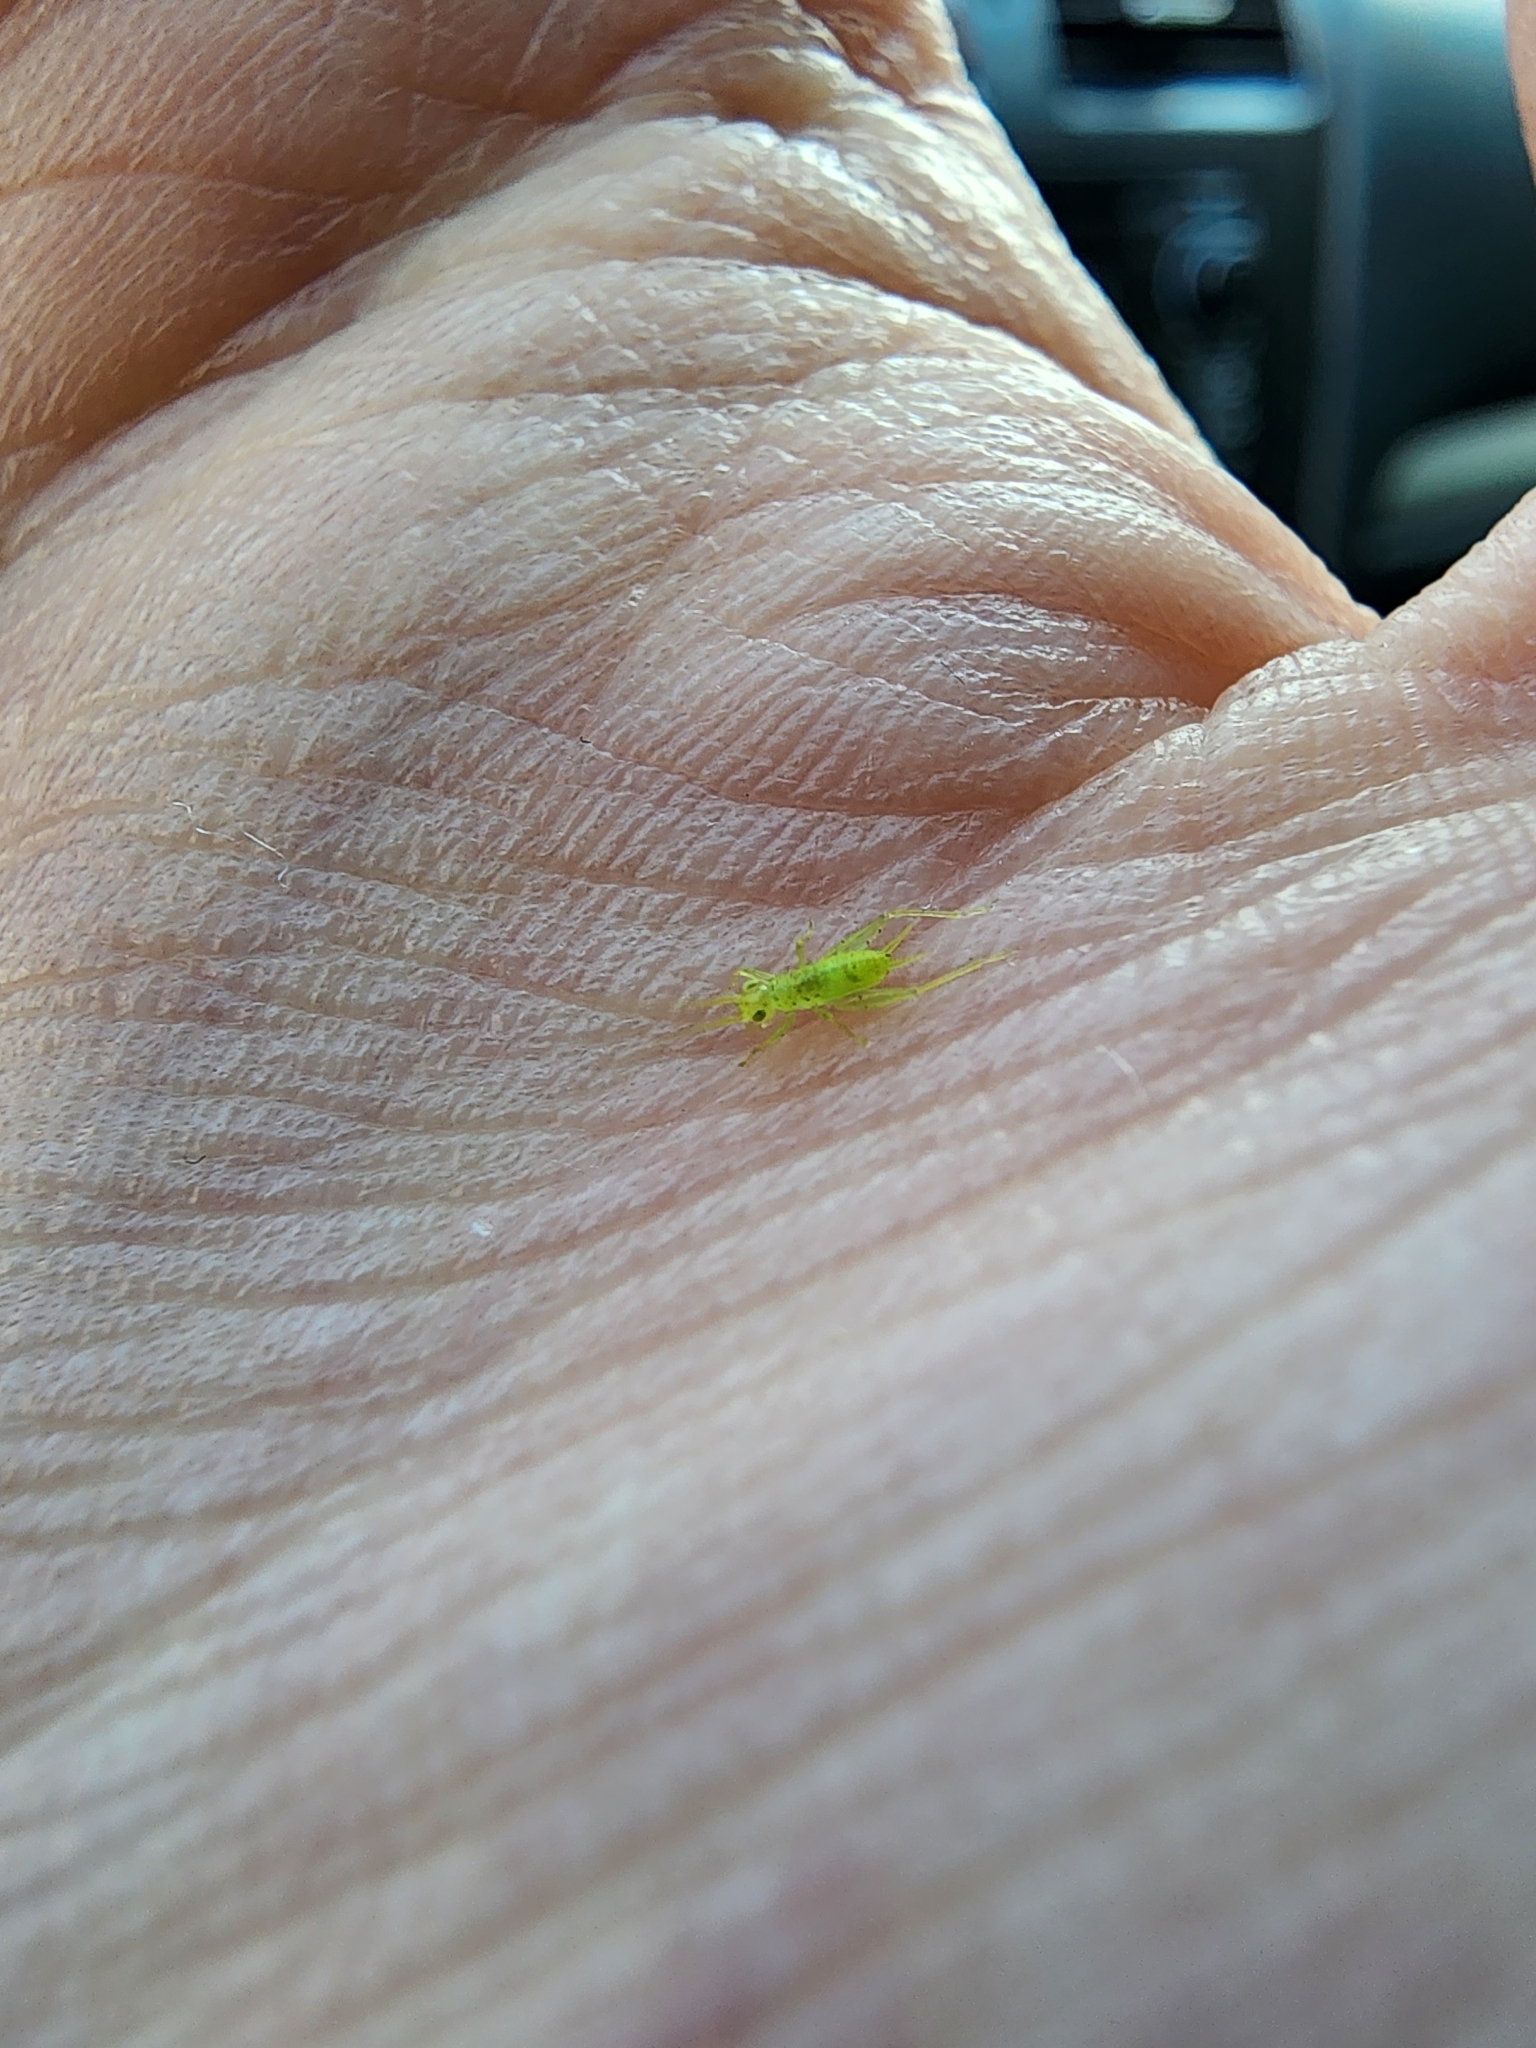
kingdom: Animalia
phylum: Arthropoda
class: Insecta
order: Orthoptera
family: Trigonidiidae
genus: Cyrtoxipha
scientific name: Cyrtoxipha columbiana
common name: Columbian trig
